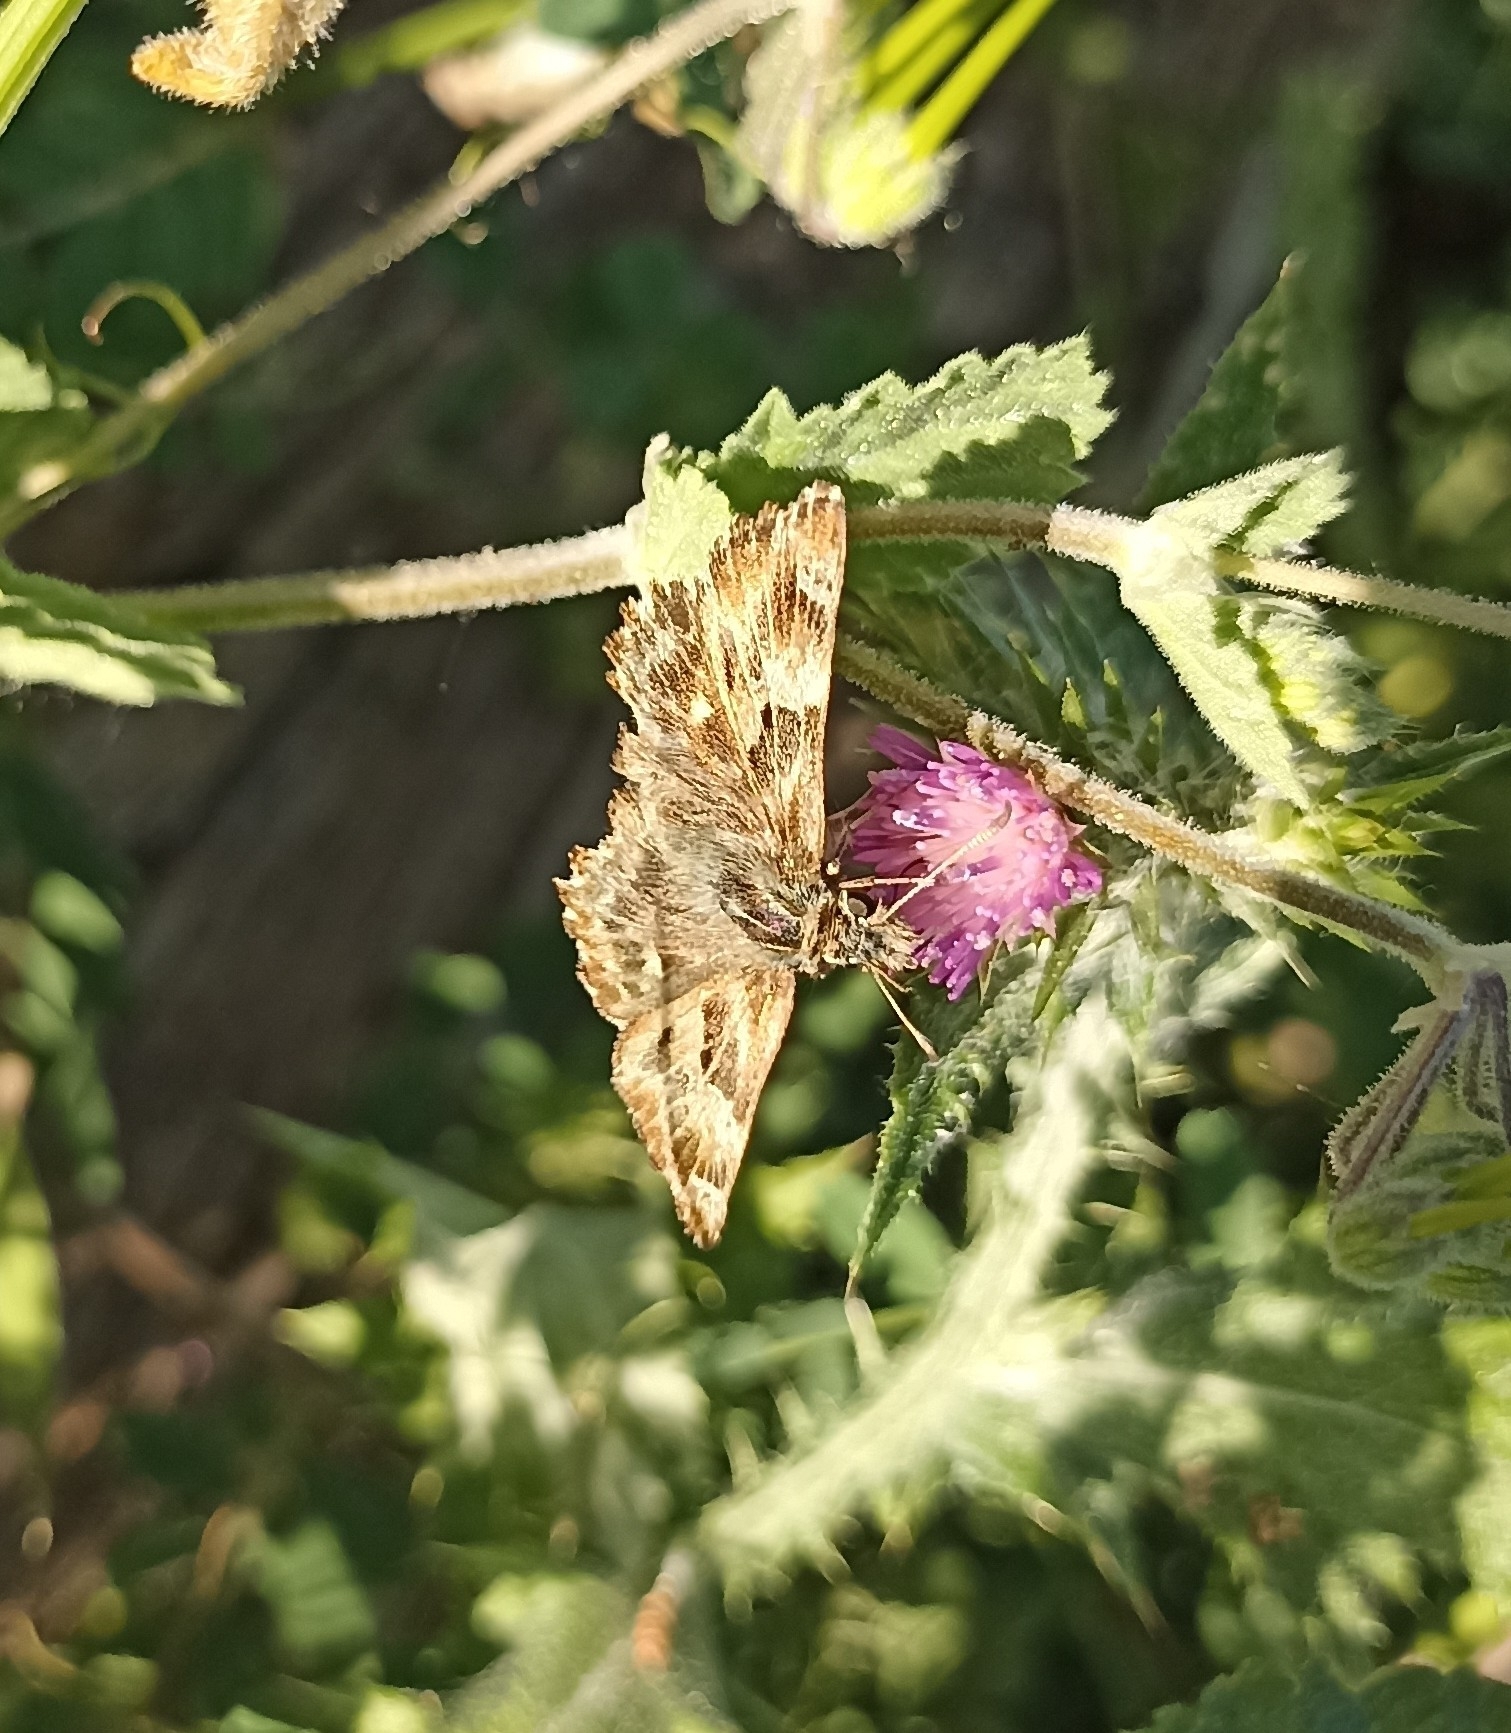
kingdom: Animalia
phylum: Arthropoda
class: Insecta
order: Lepidoptera
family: Hesperiidae
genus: Carcharodus
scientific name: Carcharodus alceae
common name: Mallow skipper
